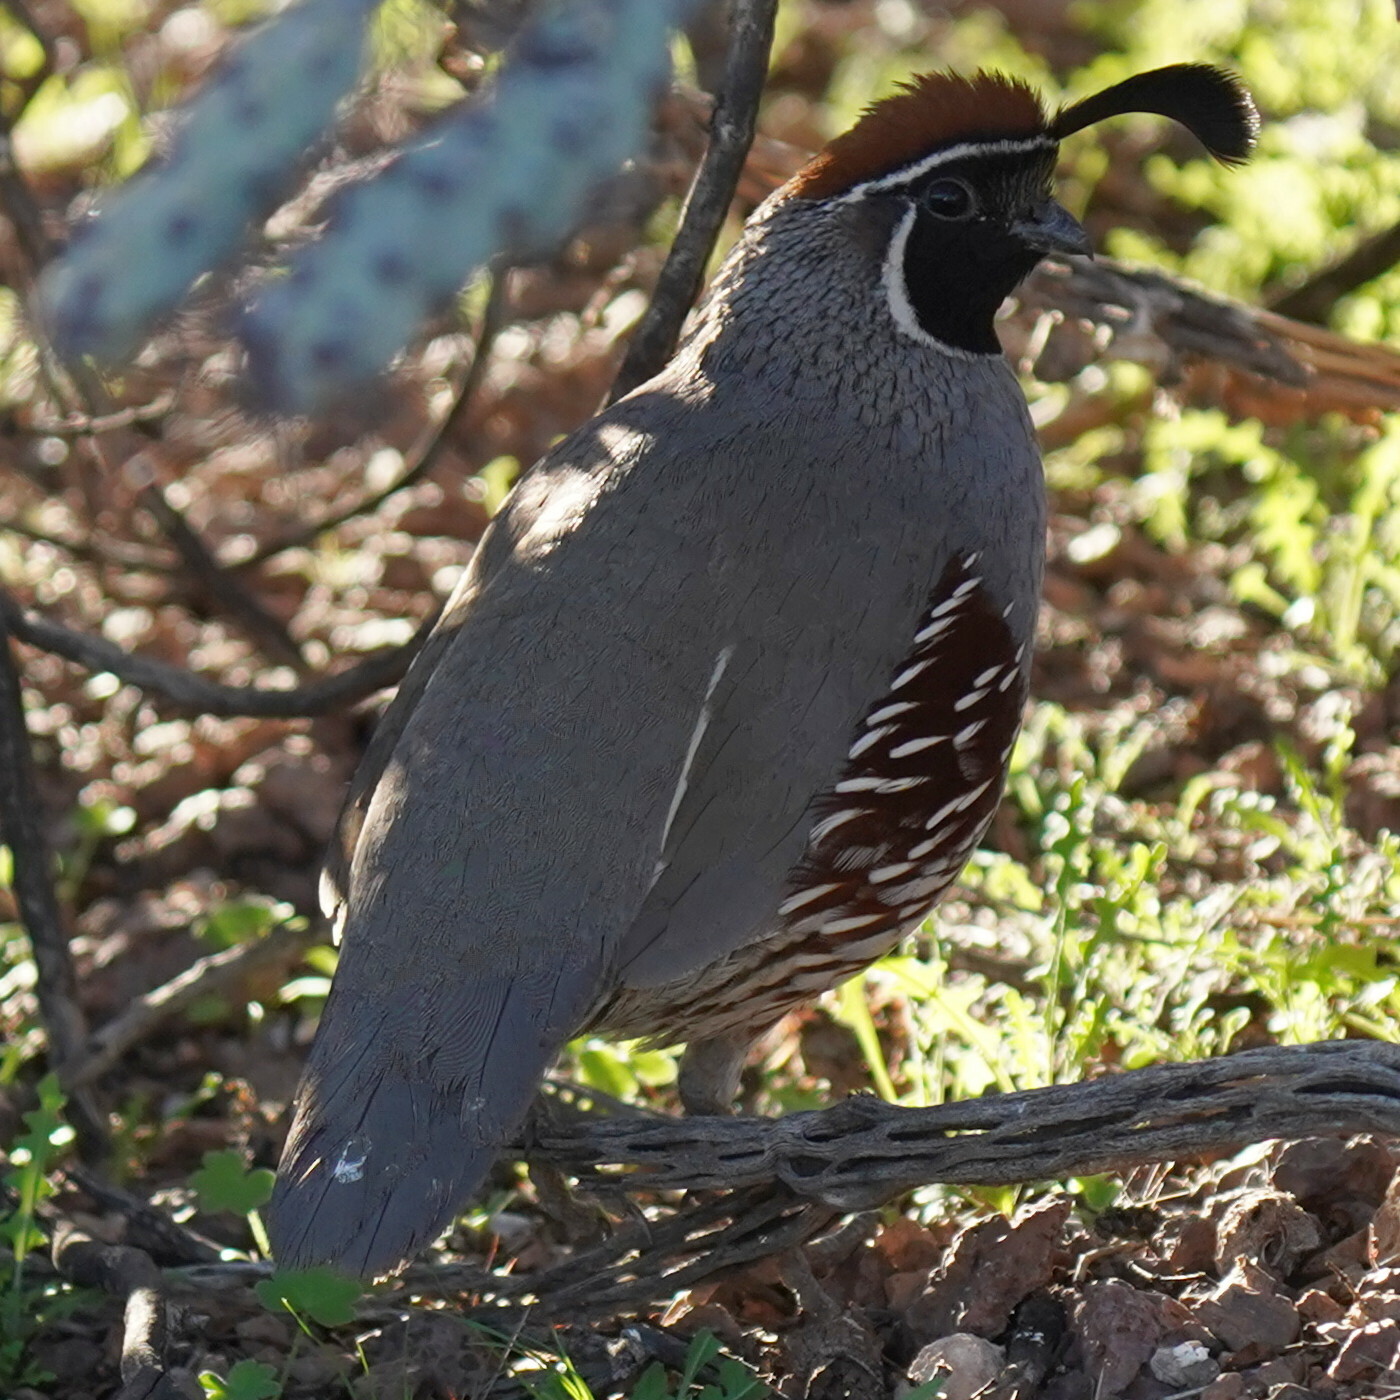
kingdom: Animalia
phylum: Chordata
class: Aves
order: Galliformes
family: Odontophoridae
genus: Callipepla
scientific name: Callipepla gambelii
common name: Gambel's quail
